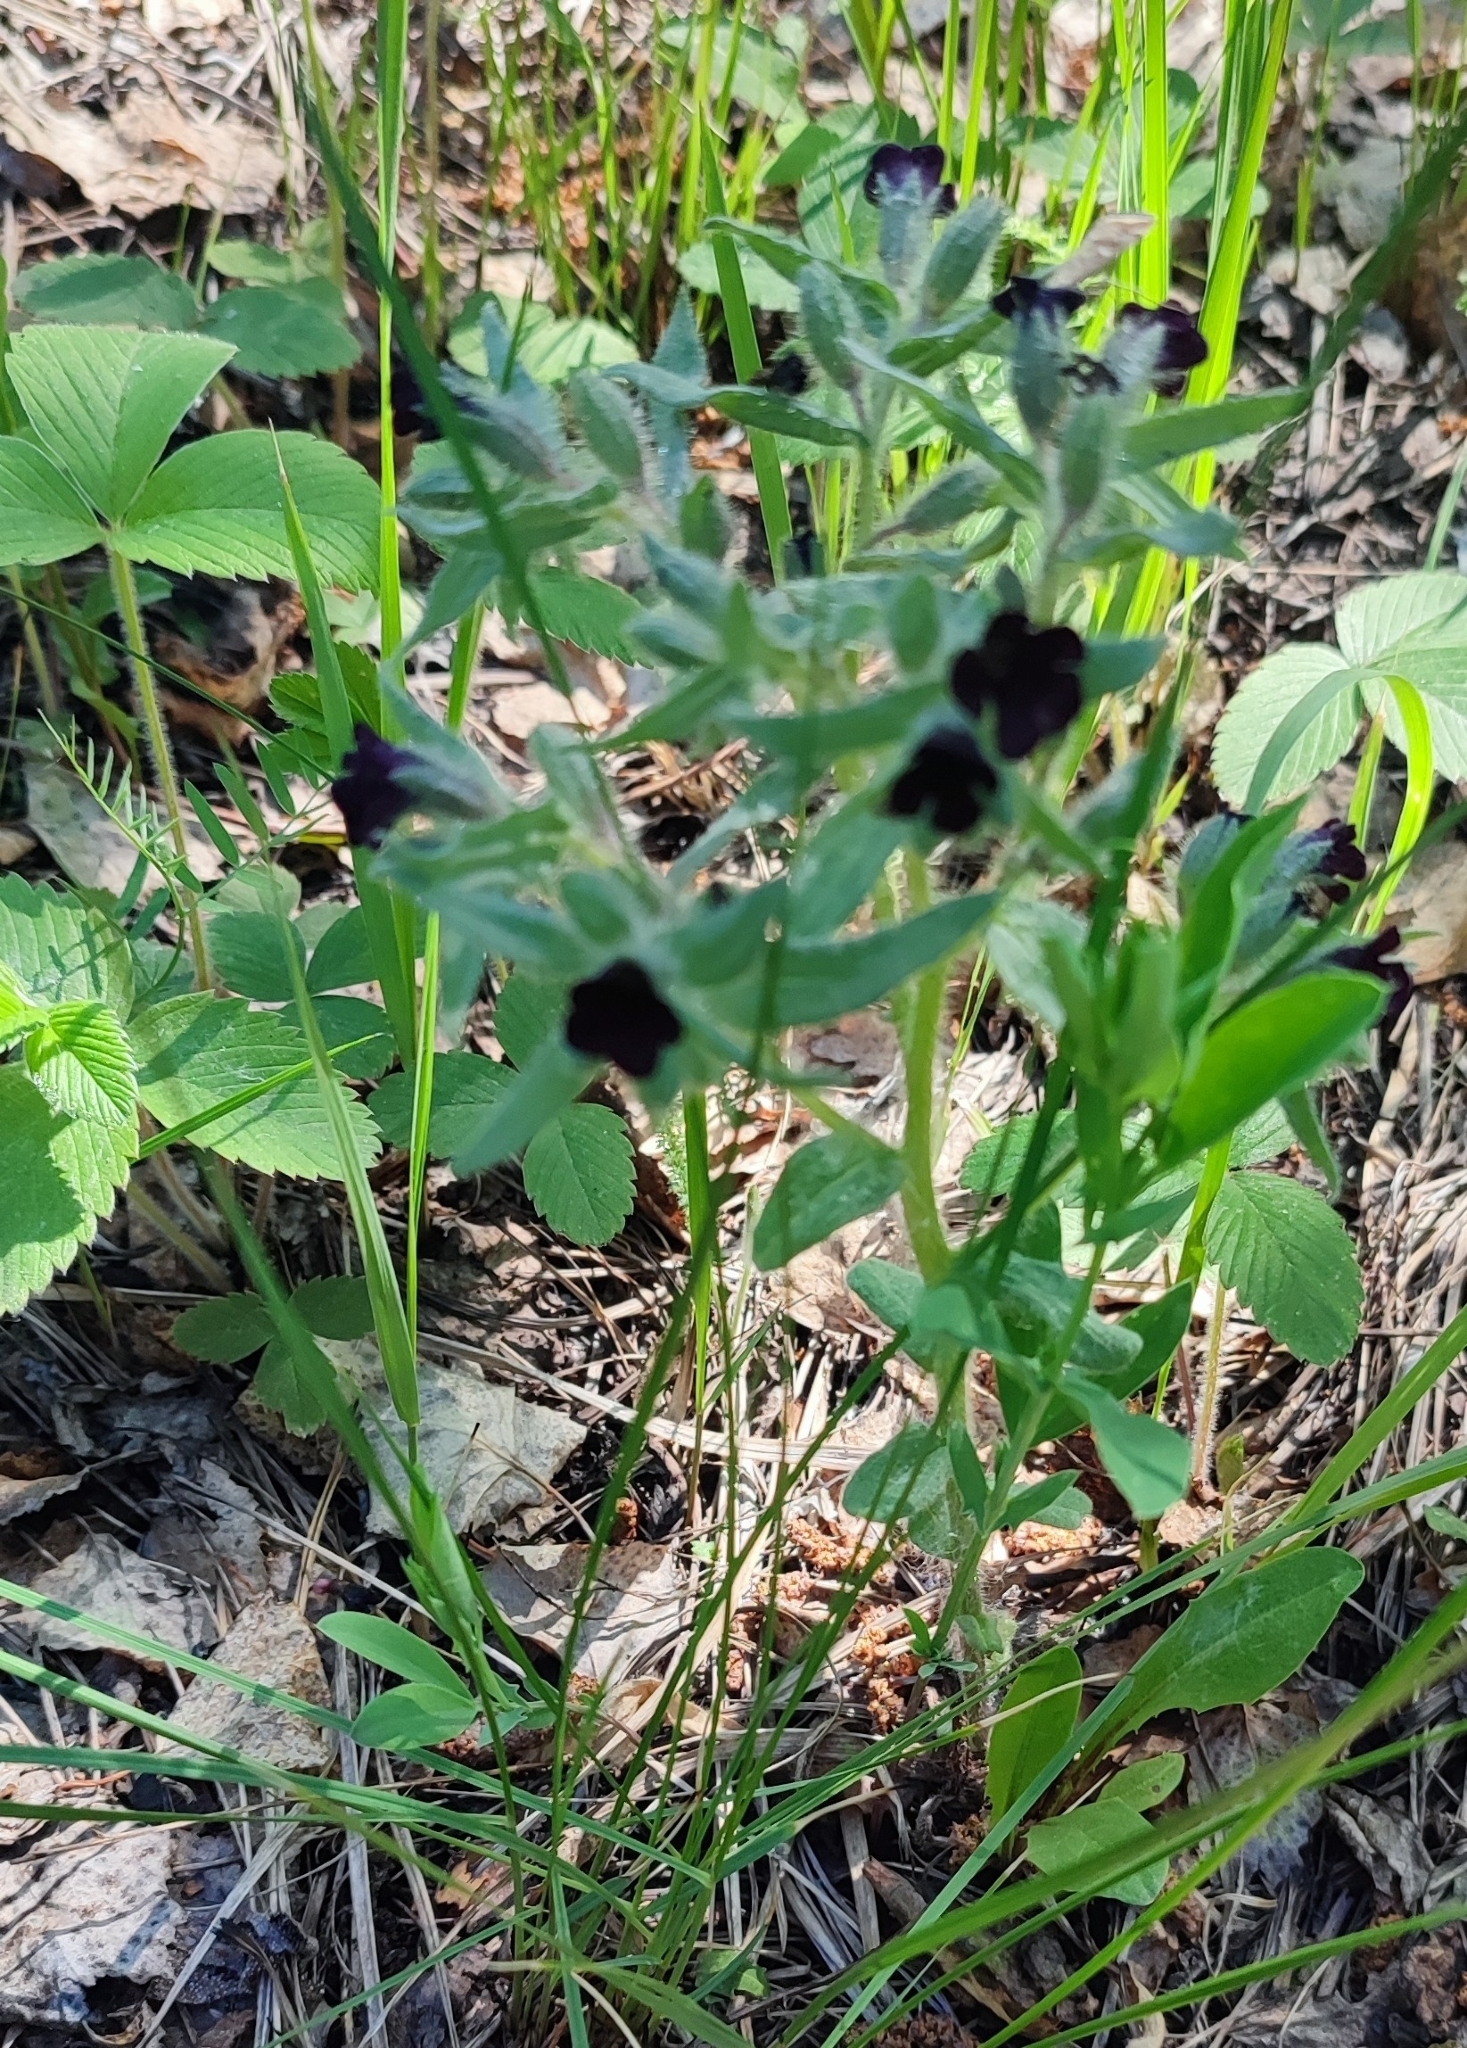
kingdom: Plantae
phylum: Tracheophyta
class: Magnoliopsida
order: Boraginales
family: Boraginaceae
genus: Nonea
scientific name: Nonea pulla
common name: Brown nonea
